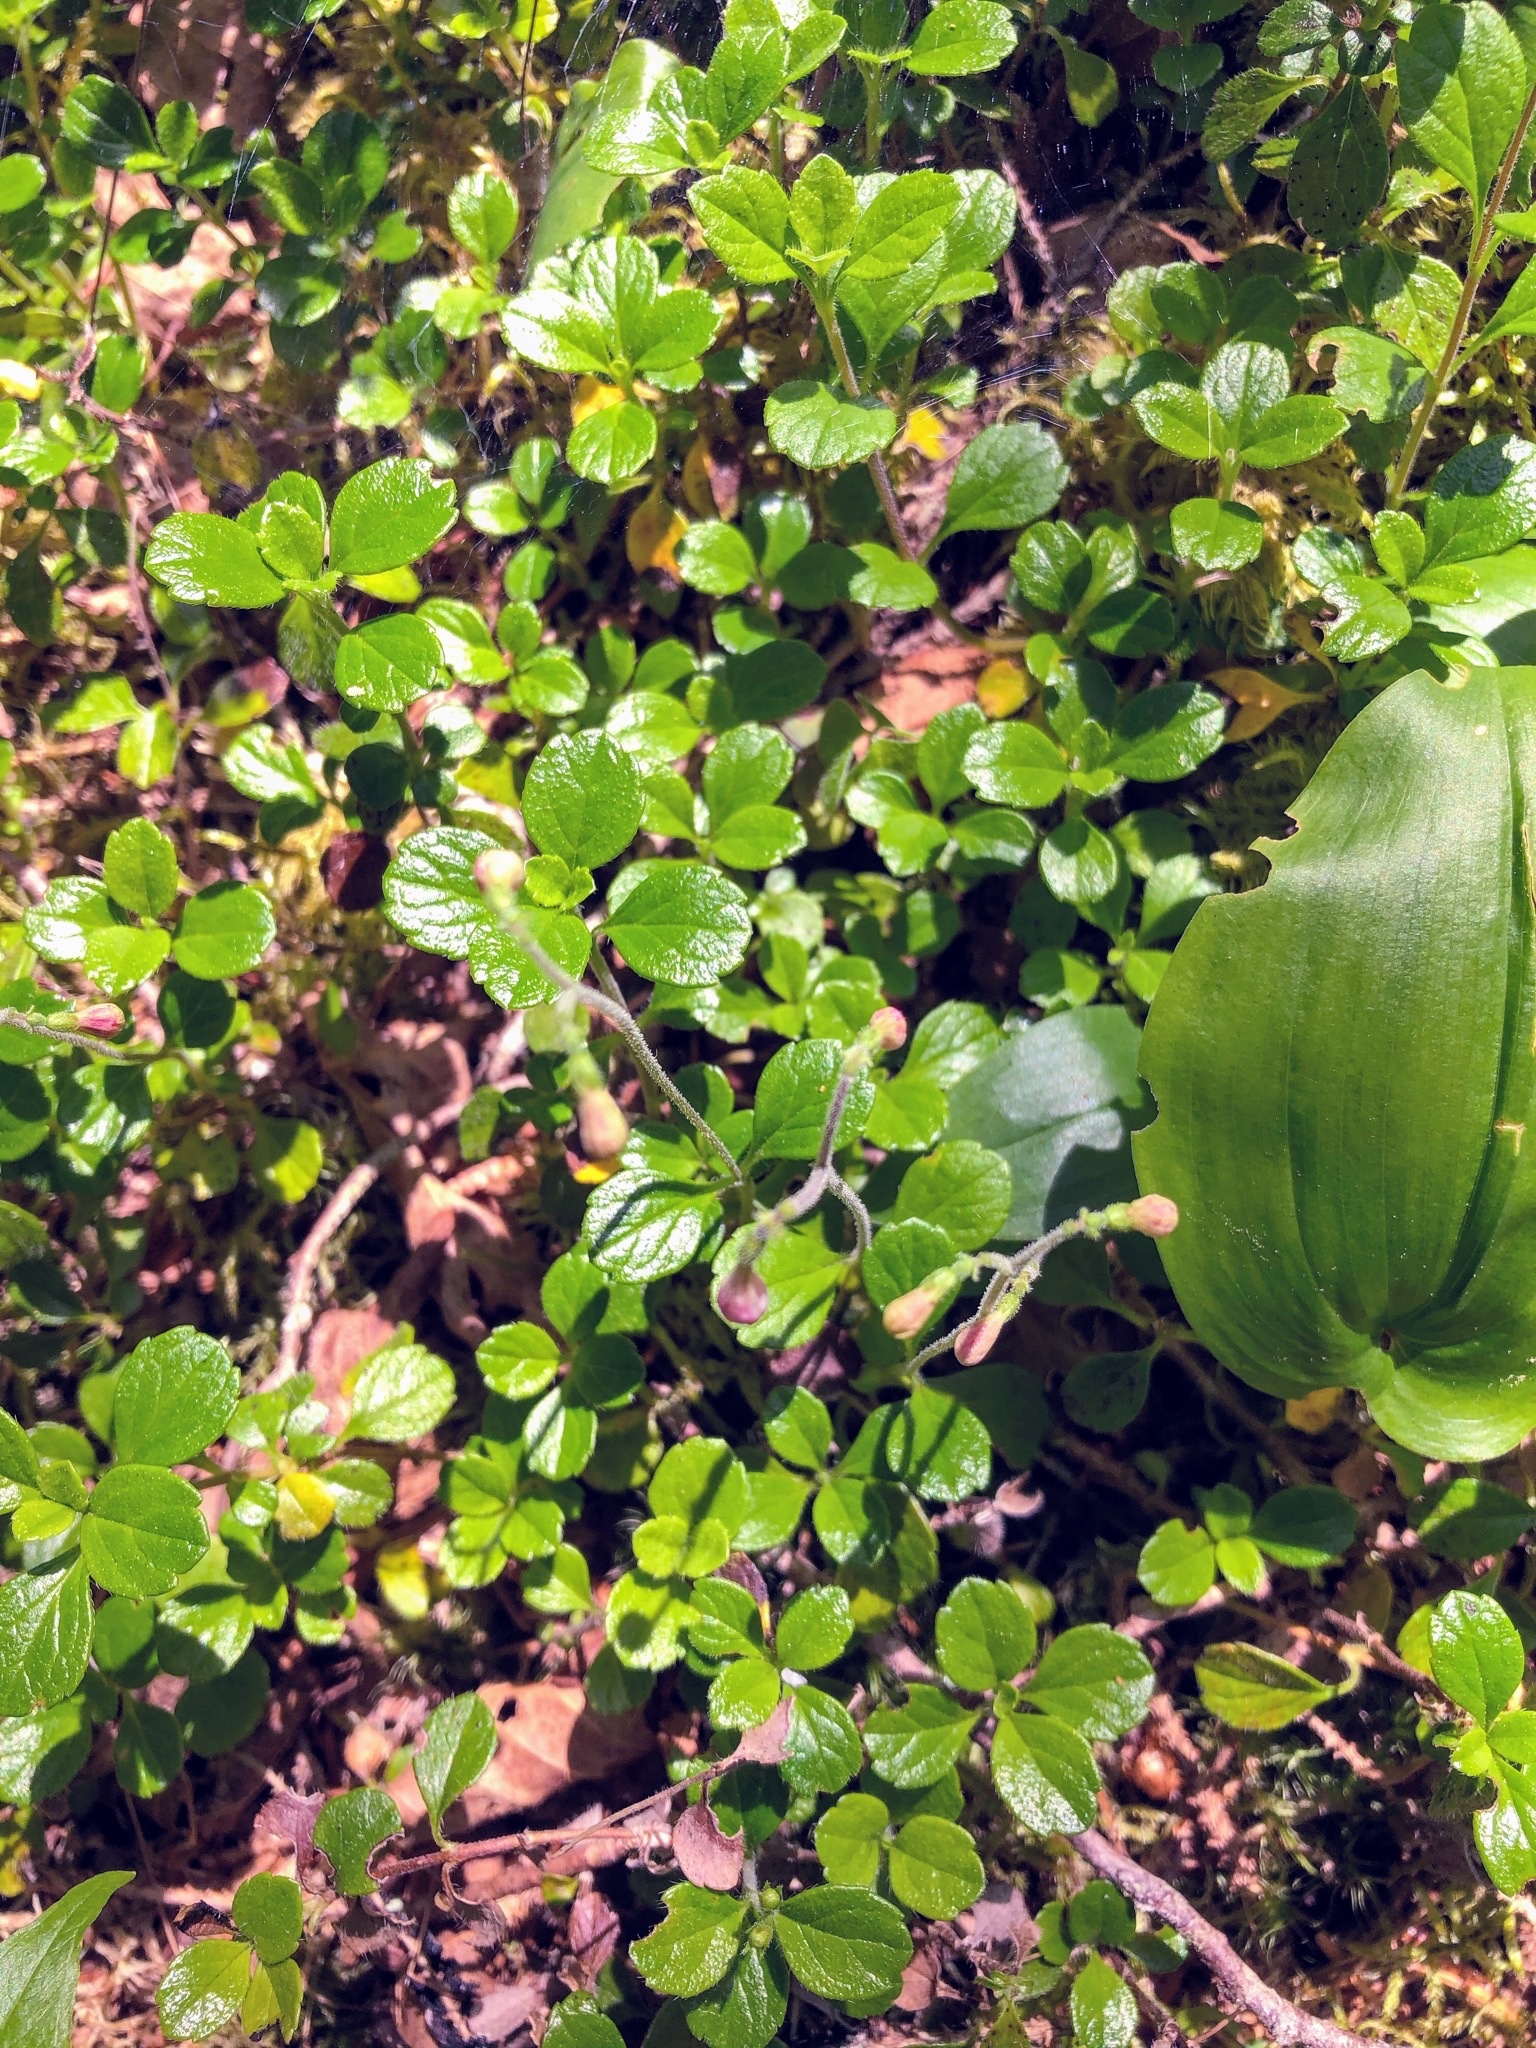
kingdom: Plantae
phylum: Tracheophyta
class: Magnoliopsida
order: Dipsacales
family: Caprifoliaceae
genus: Linnaea
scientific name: Linnaea borealis
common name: Twinflower
